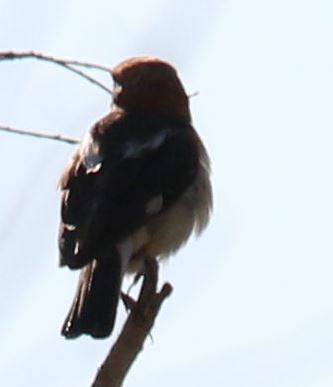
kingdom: Animalia
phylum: Chordata
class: Aves
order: Passeriformes
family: Laniidae
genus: Lanius
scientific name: Lanius senator
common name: Woodchat shrike
